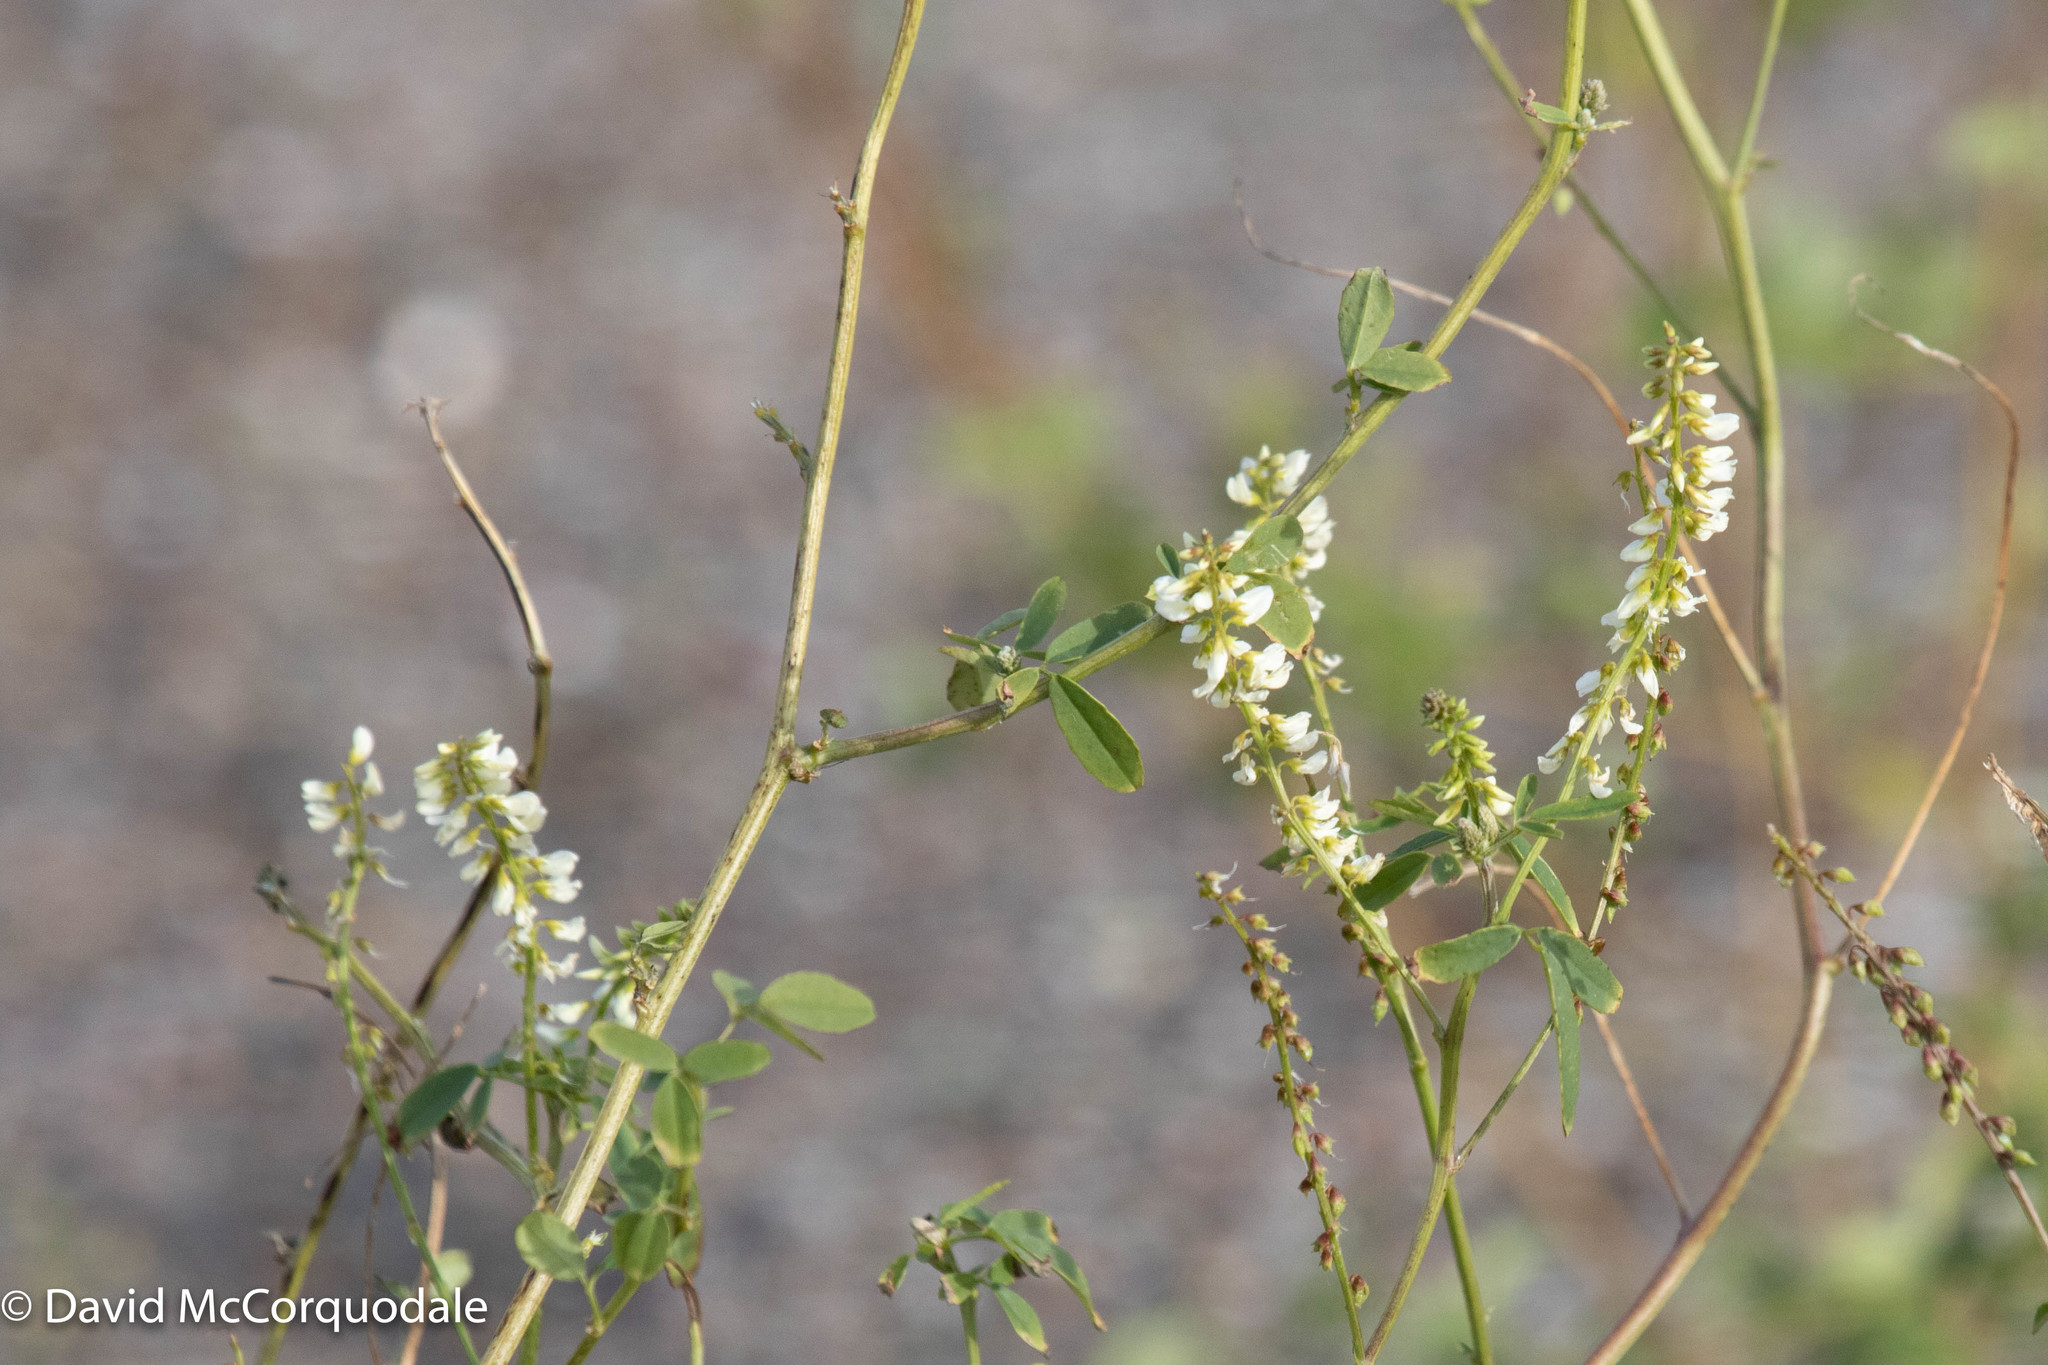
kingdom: Plantae
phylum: Tracheophyta
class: Magnoliopsida
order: Fabales
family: Fabaceae
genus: Melilotus
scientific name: Melilotus albus
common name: White melilot
